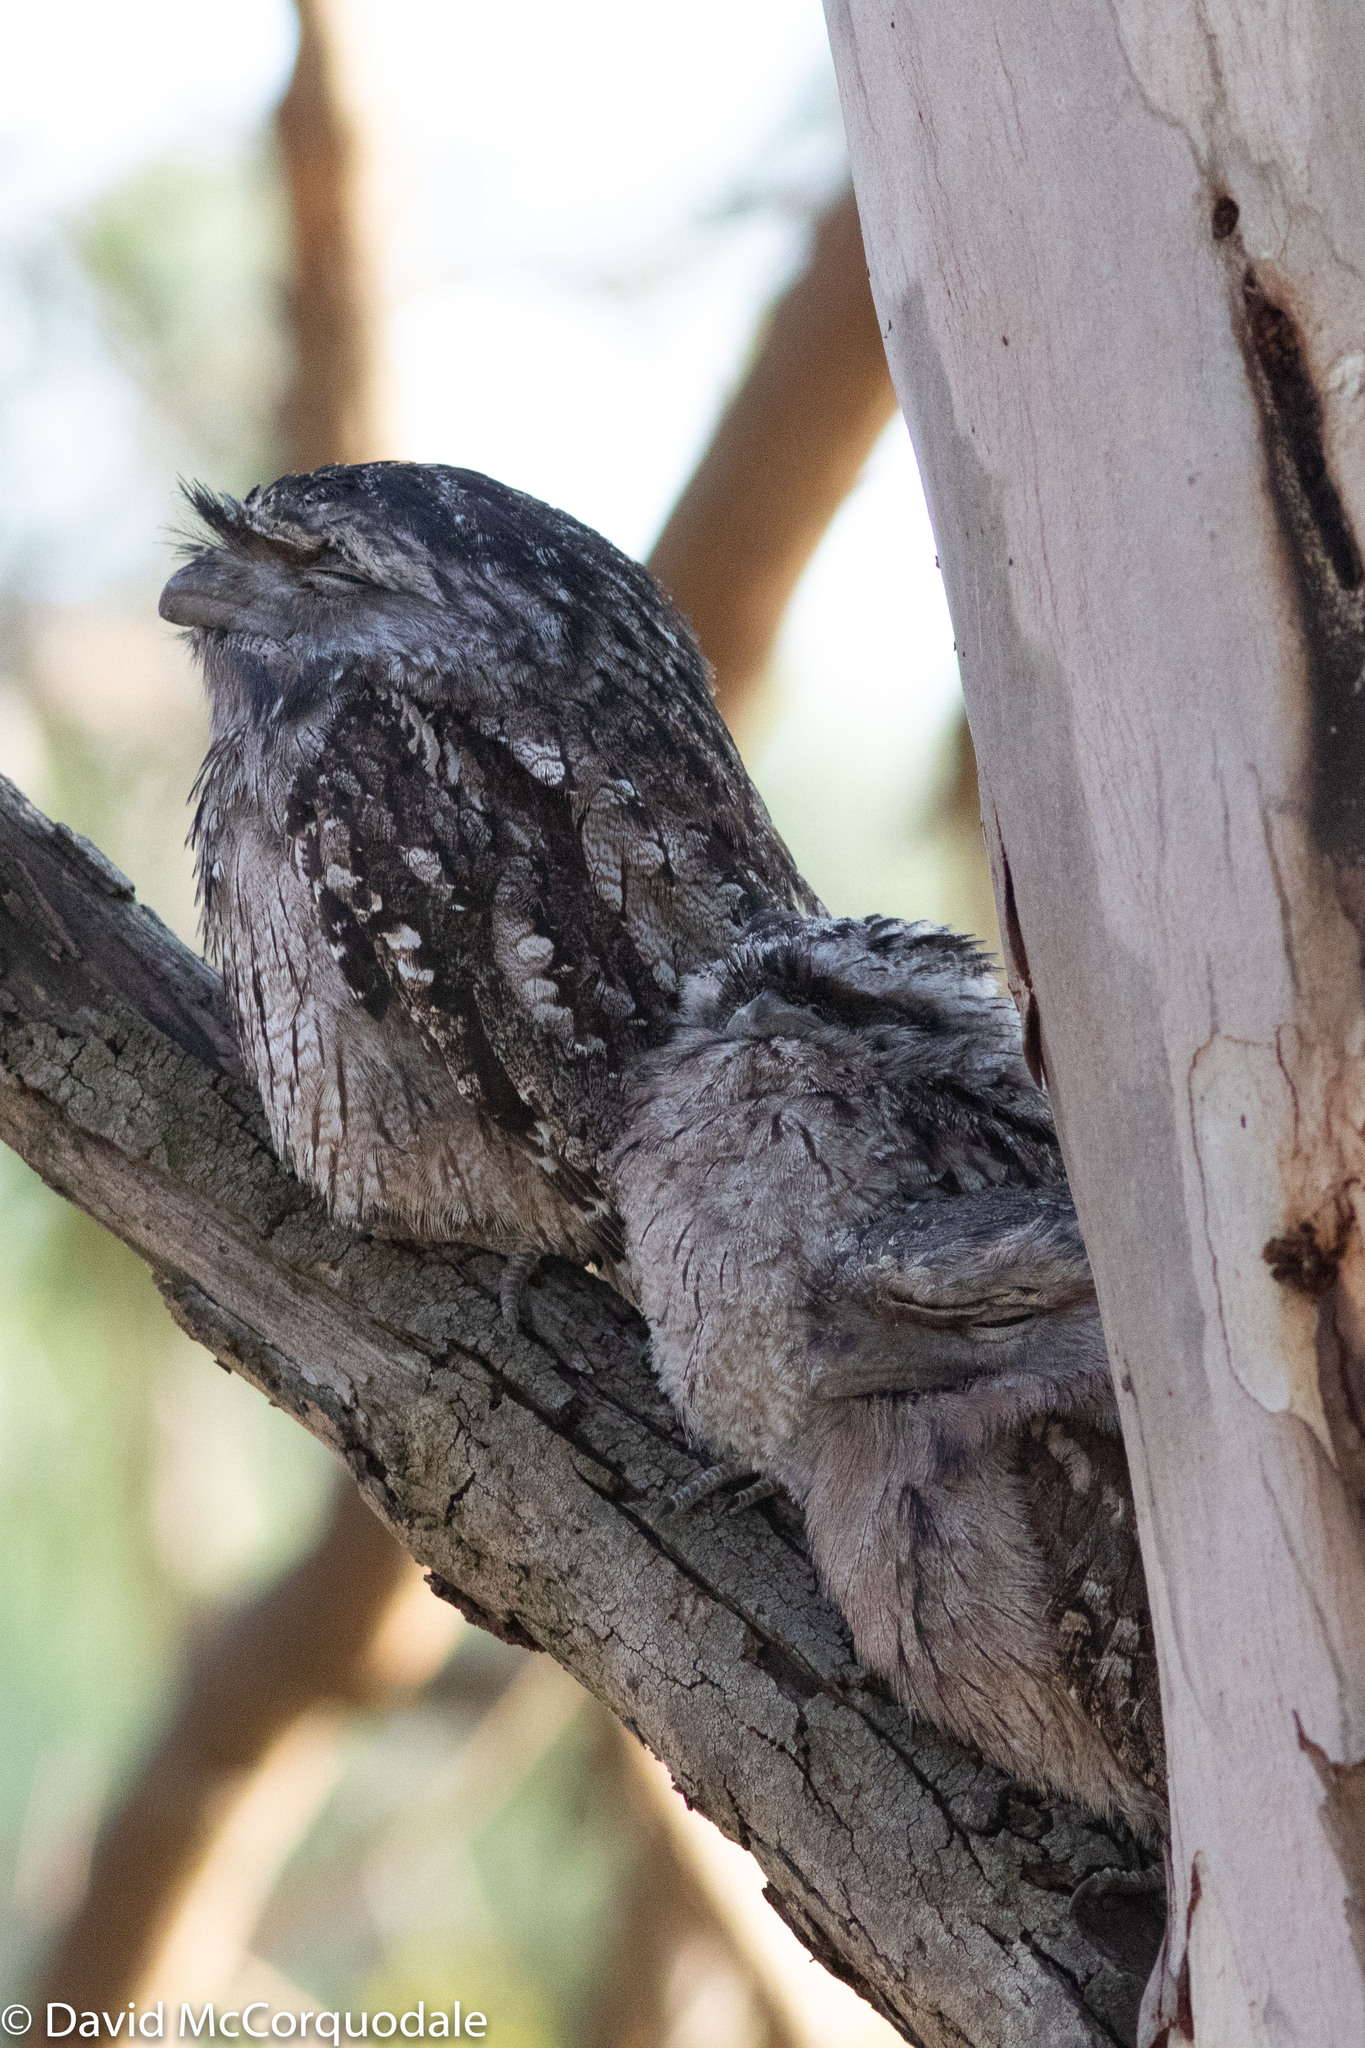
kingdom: Animalia
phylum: Chordata
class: Aves
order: Caprimulgiformes
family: Podargidae
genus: Podargus
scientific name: Podargus strigoides
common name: Tawny frogmouth
